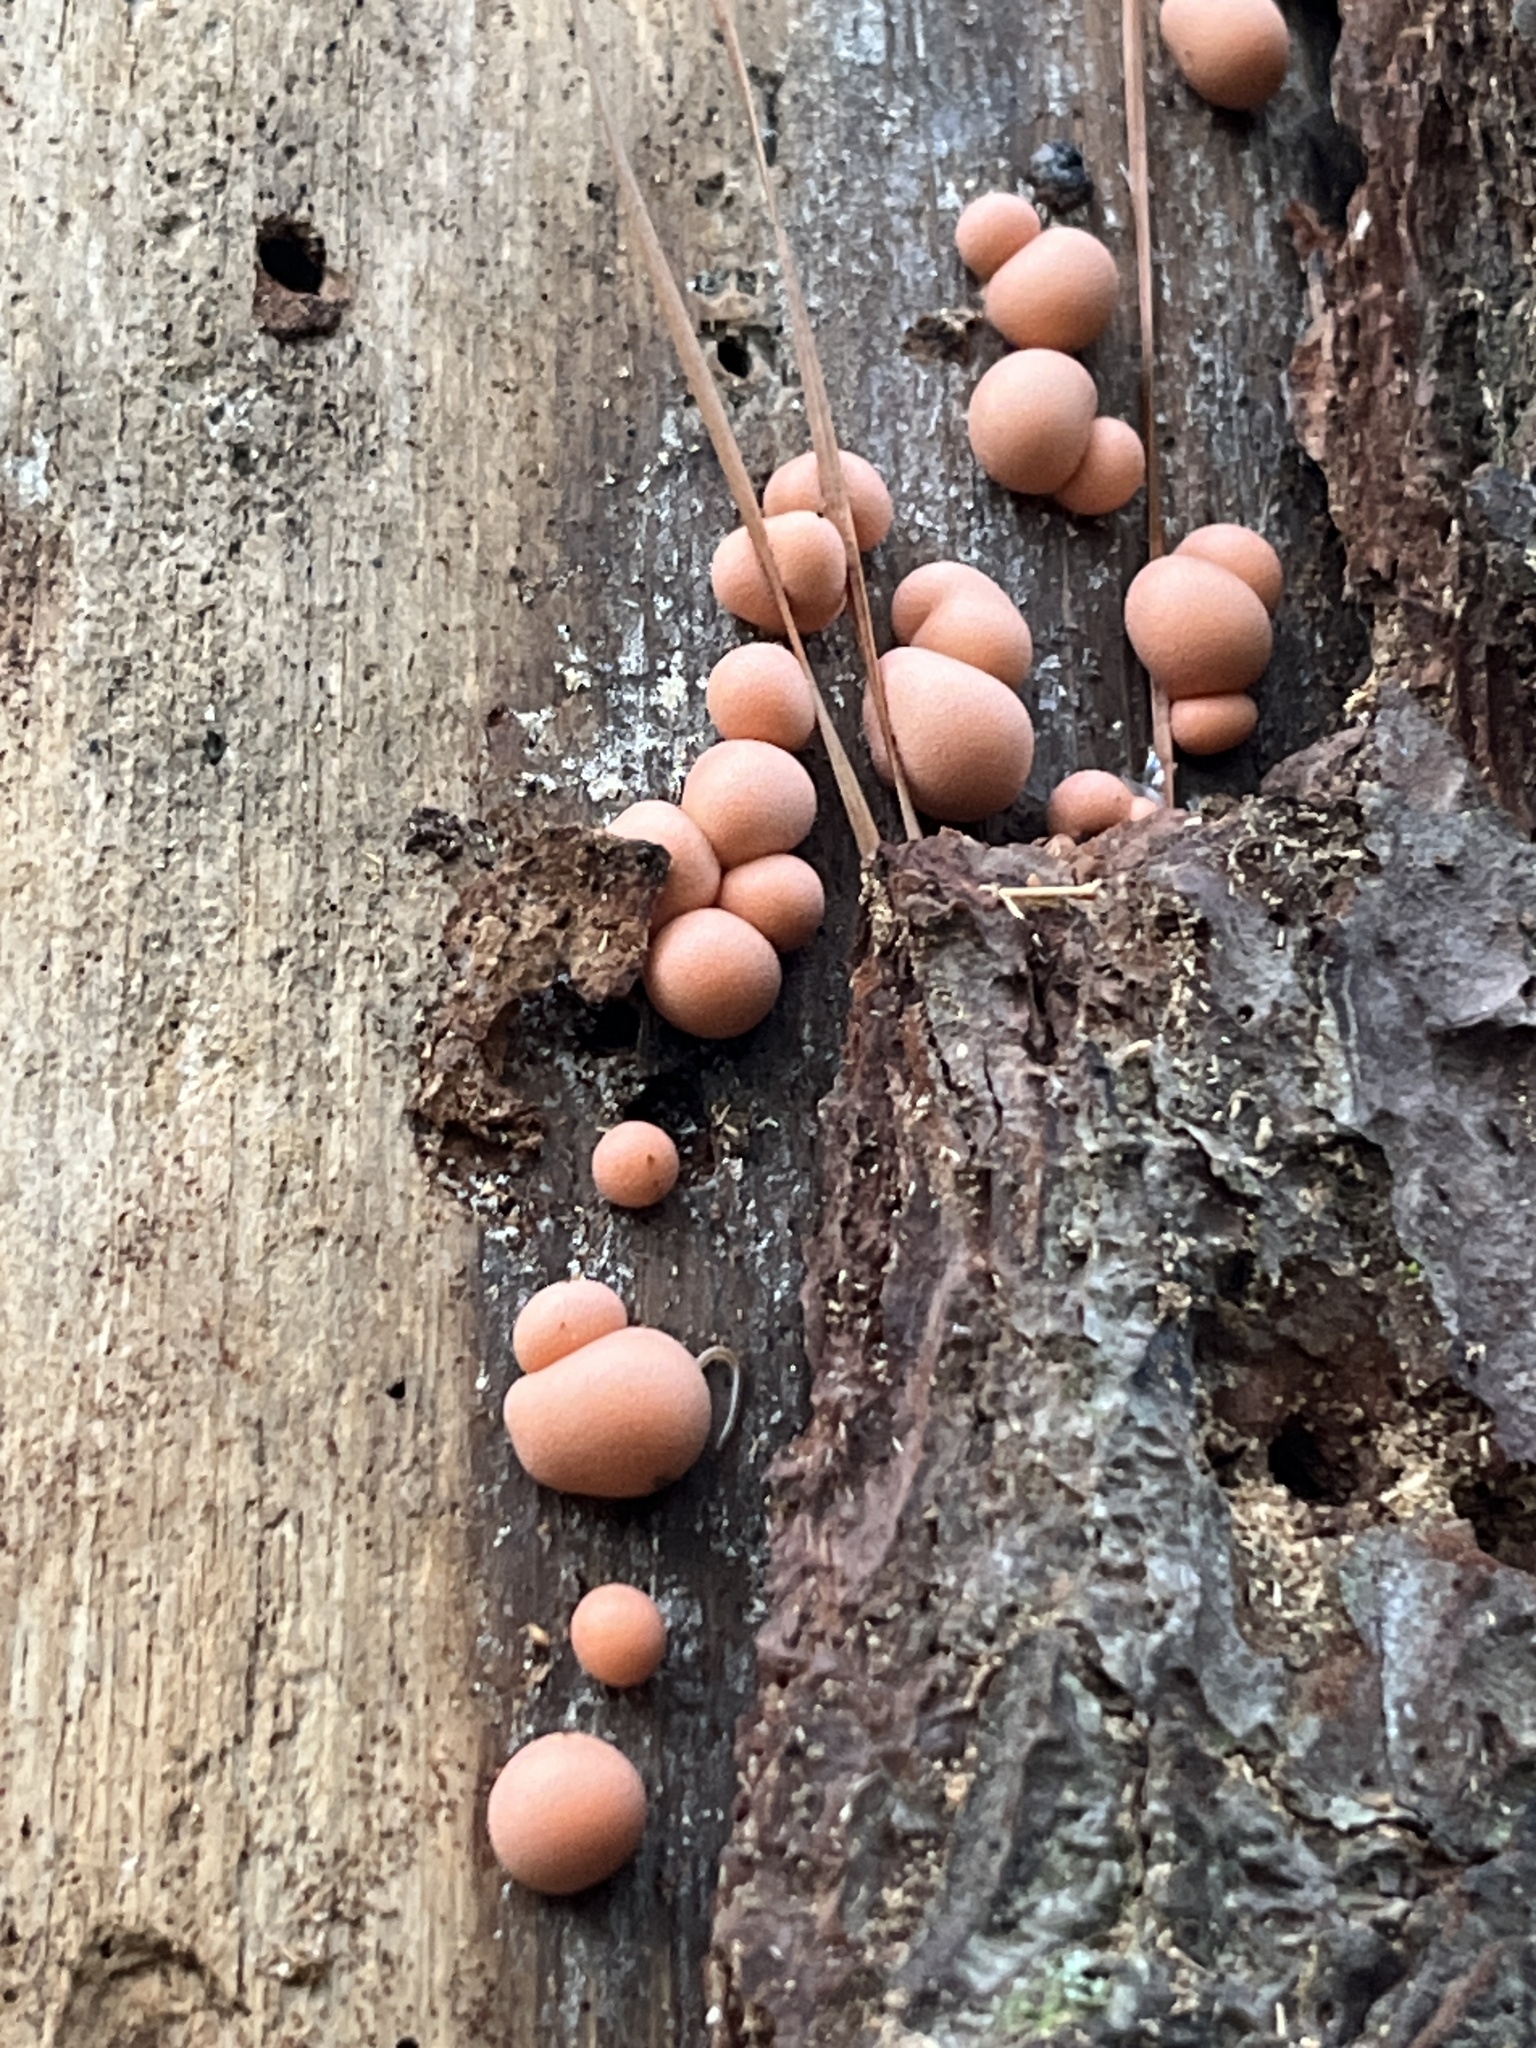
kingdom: Protozoa
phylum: Mycetozoa
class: Myxomycetes
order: Cribrariales
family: Tubiferaceae
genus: Lycogala
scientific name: Lycogala epidendrum
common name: Wolf's milk
